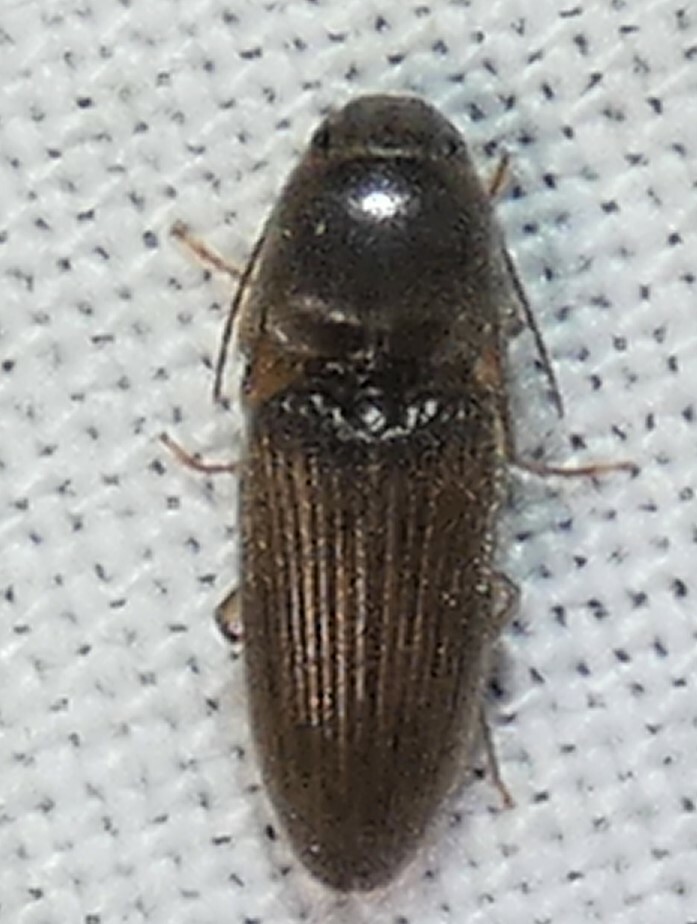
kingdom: Animalia
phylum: Arthropoda
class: Insecta
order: Coleoptera
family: Elateridae
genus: Monocrepidius
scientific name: Monocrepidius
